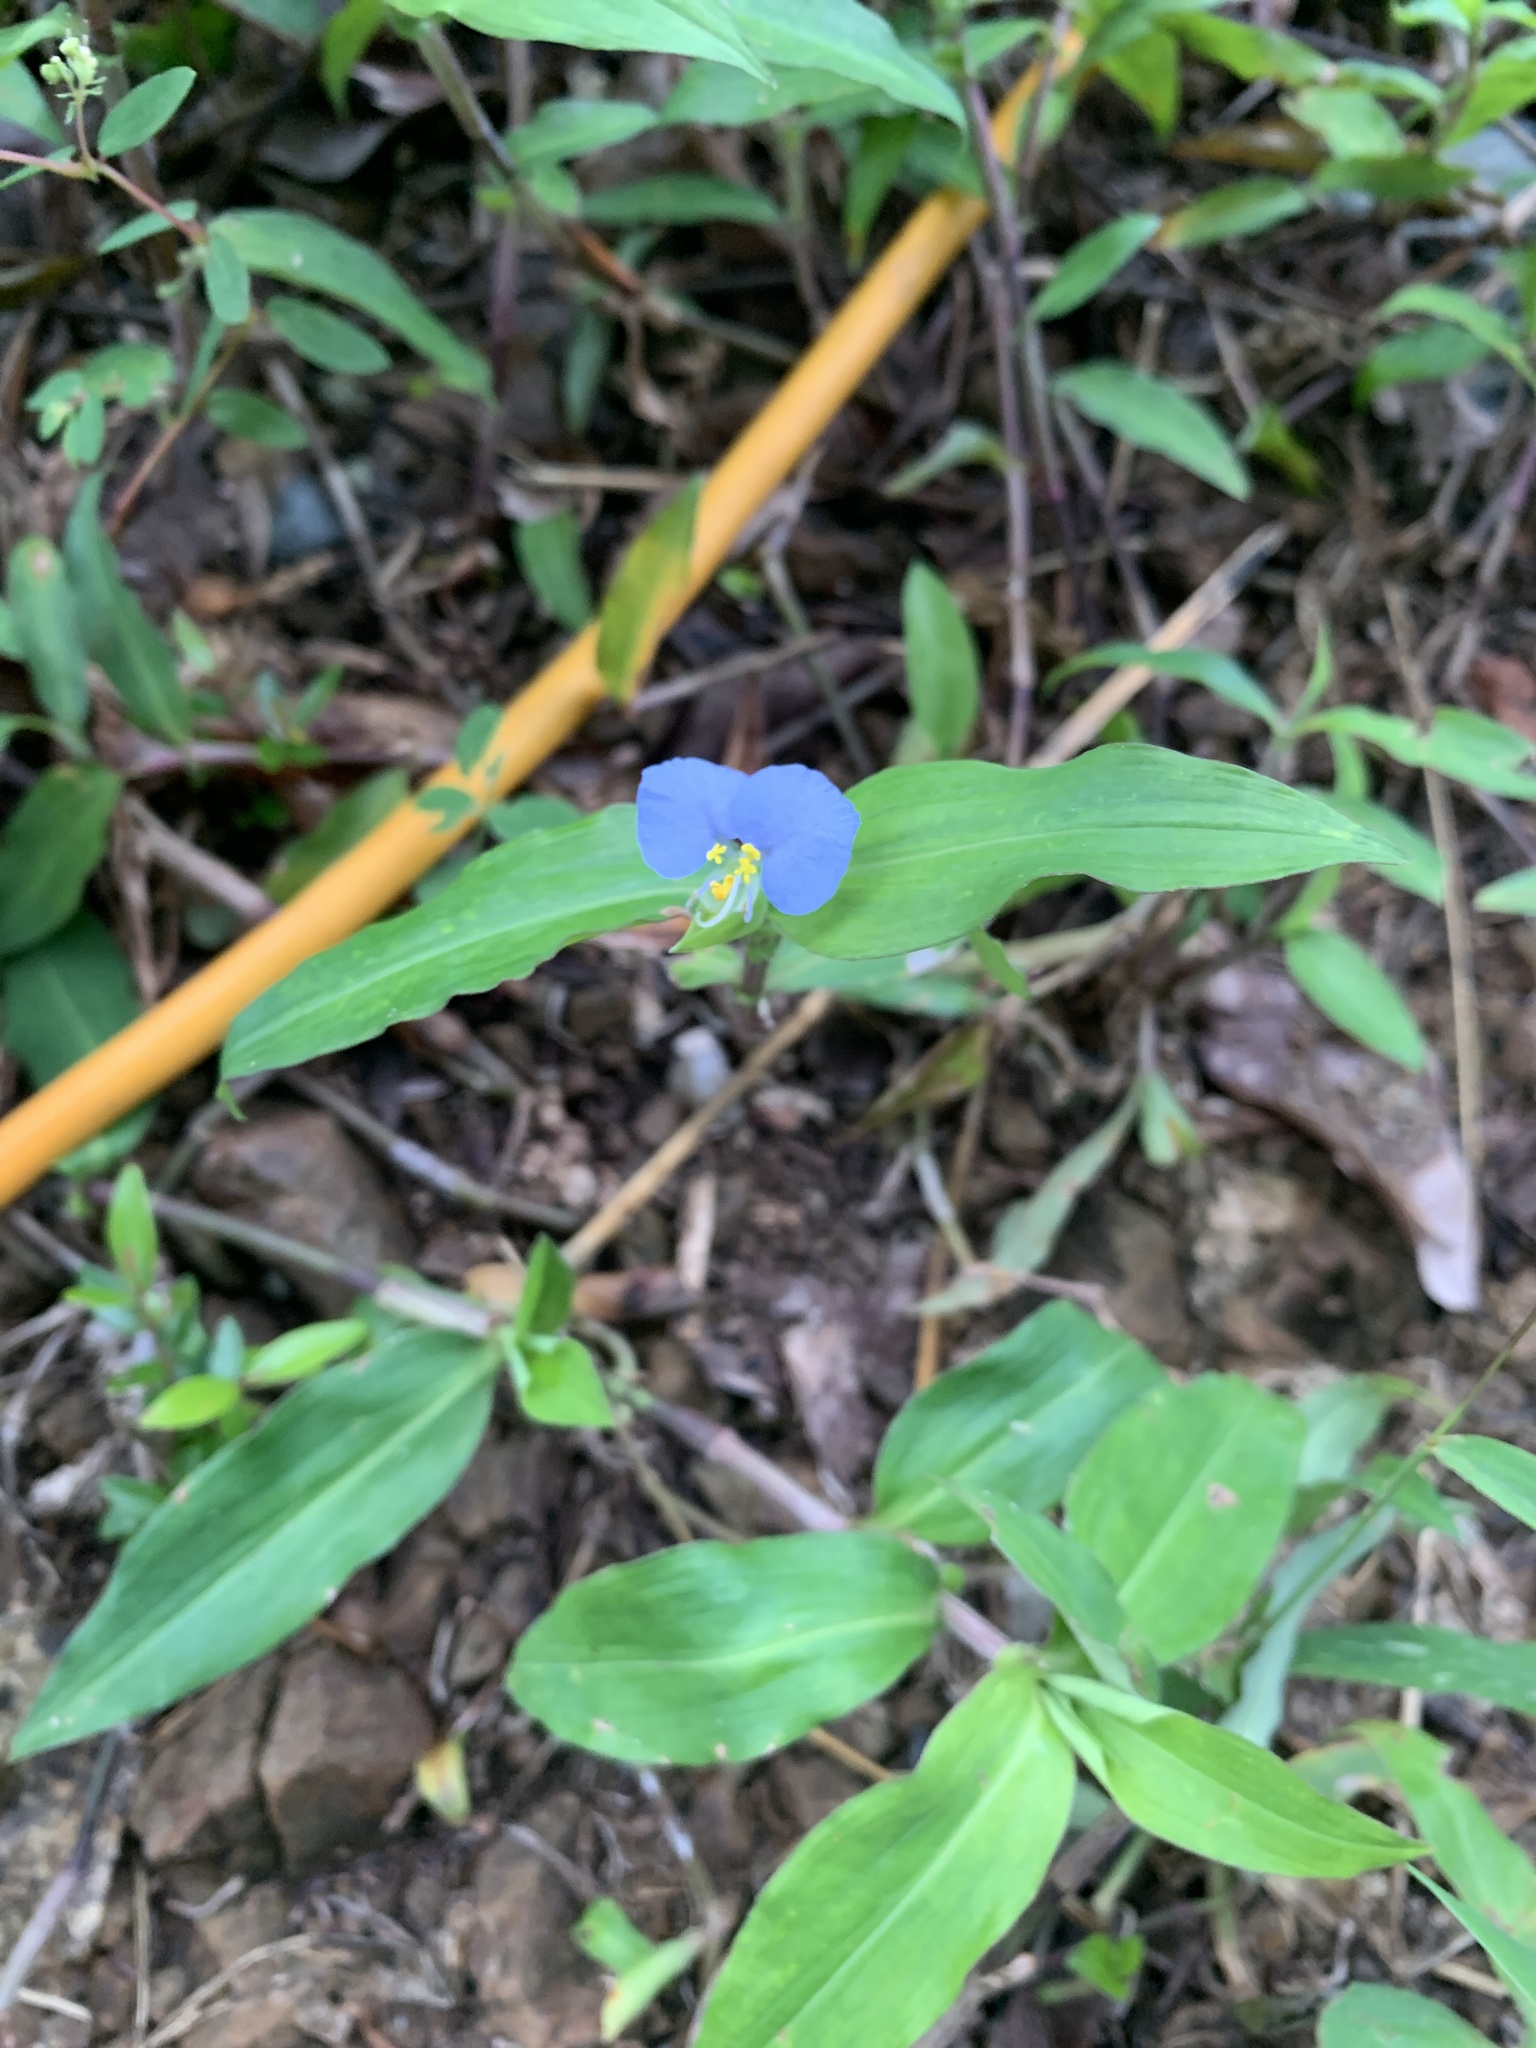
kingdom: Plantae
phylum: Tracheophyta
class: Liliopsida
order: Commelinales
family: Commelinaceae
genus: Commelina
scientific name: Commelina erecta
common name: Blousel blommetjie
